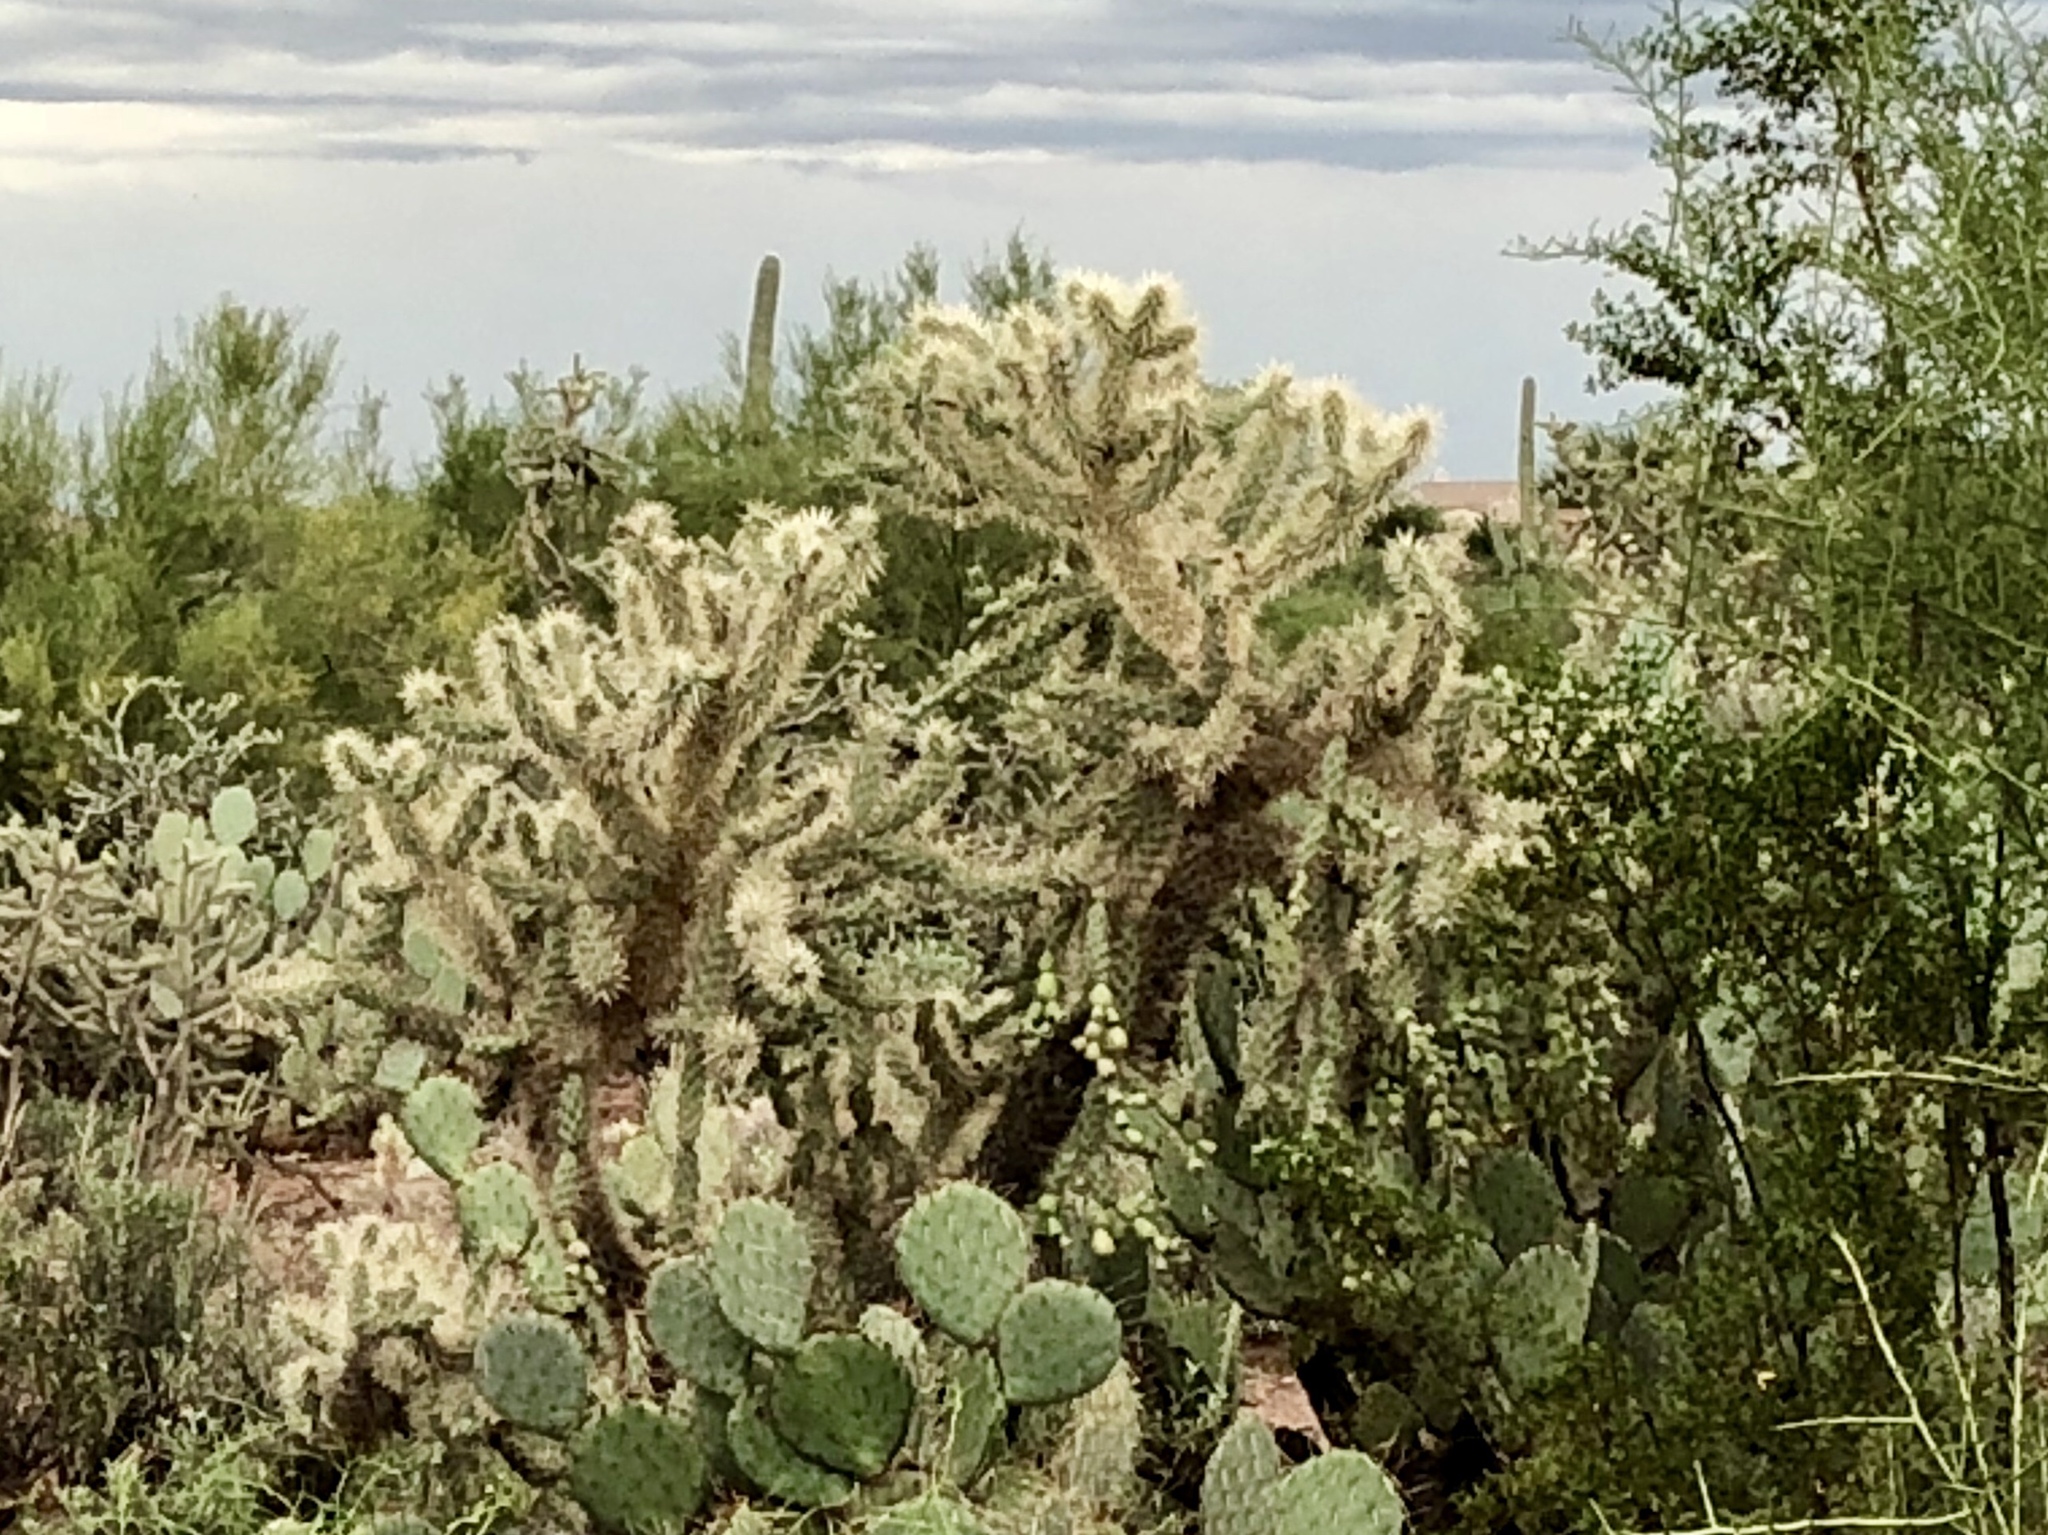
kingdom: Plantae
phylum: Tracheophyta
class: Magnoliopsida
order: Caryophyllales
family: Cactaceae
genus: Cylindropuntia
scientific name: Cylindropuntia fulgida
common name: Jumping cholla
